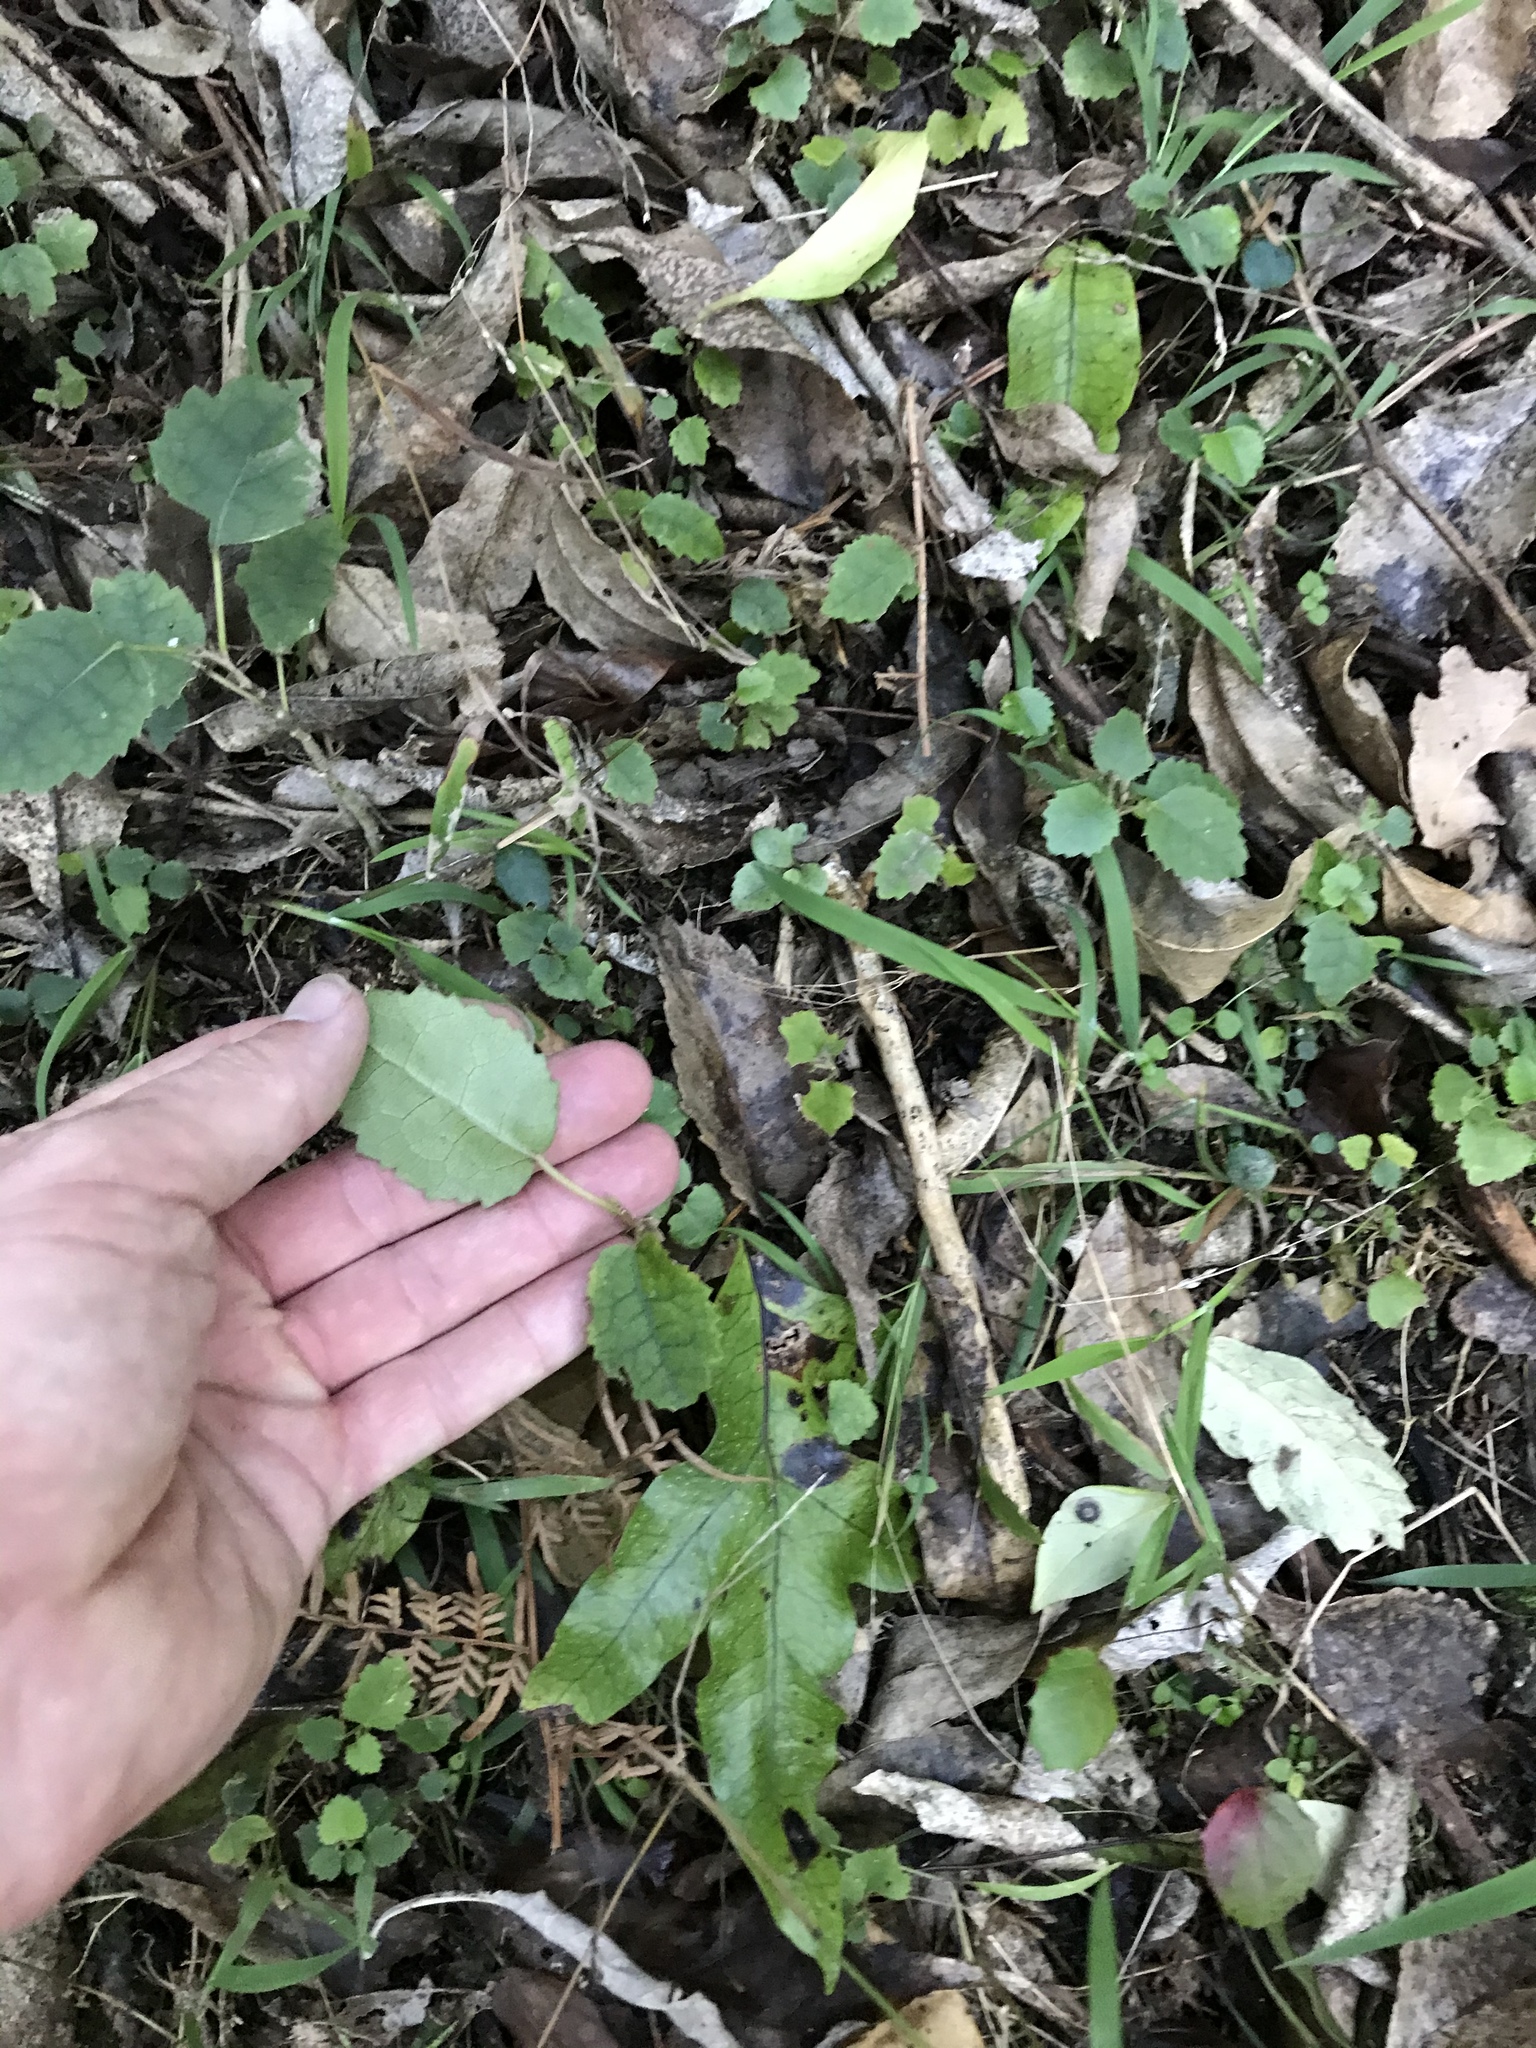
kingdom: Plantae
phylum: Tracheophyta
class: Magnoliopsida
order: Malvales
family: Malvaceae
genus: Hoheria
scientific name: Hoheria populnea
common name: Lacebark
